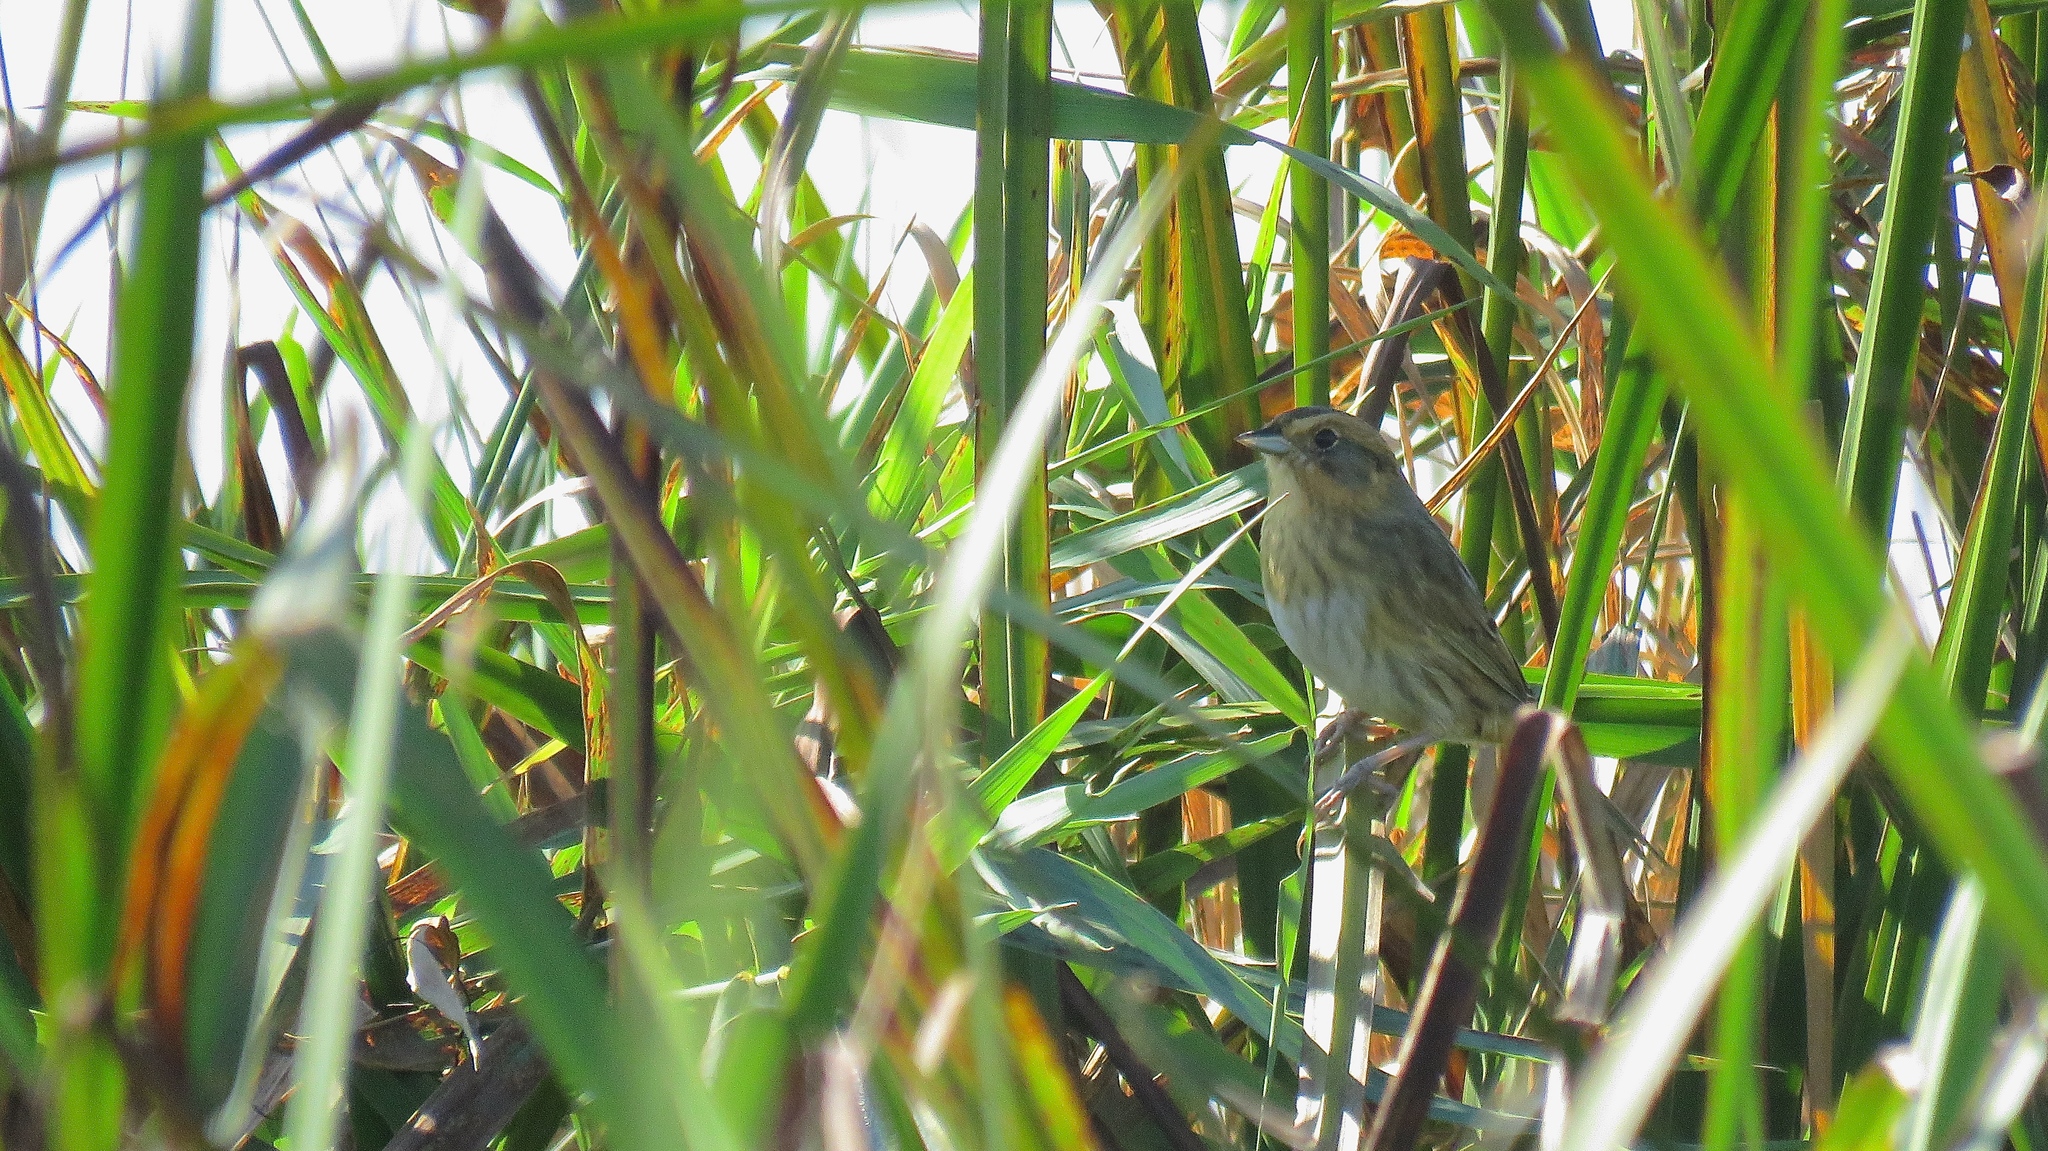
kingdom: Animalia
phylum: Chordata
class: Aves
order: Passeriformes
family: Passerellidae
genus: Ammospiza
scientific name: Ammospiza nelsoni
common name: Nelson's sparrow
